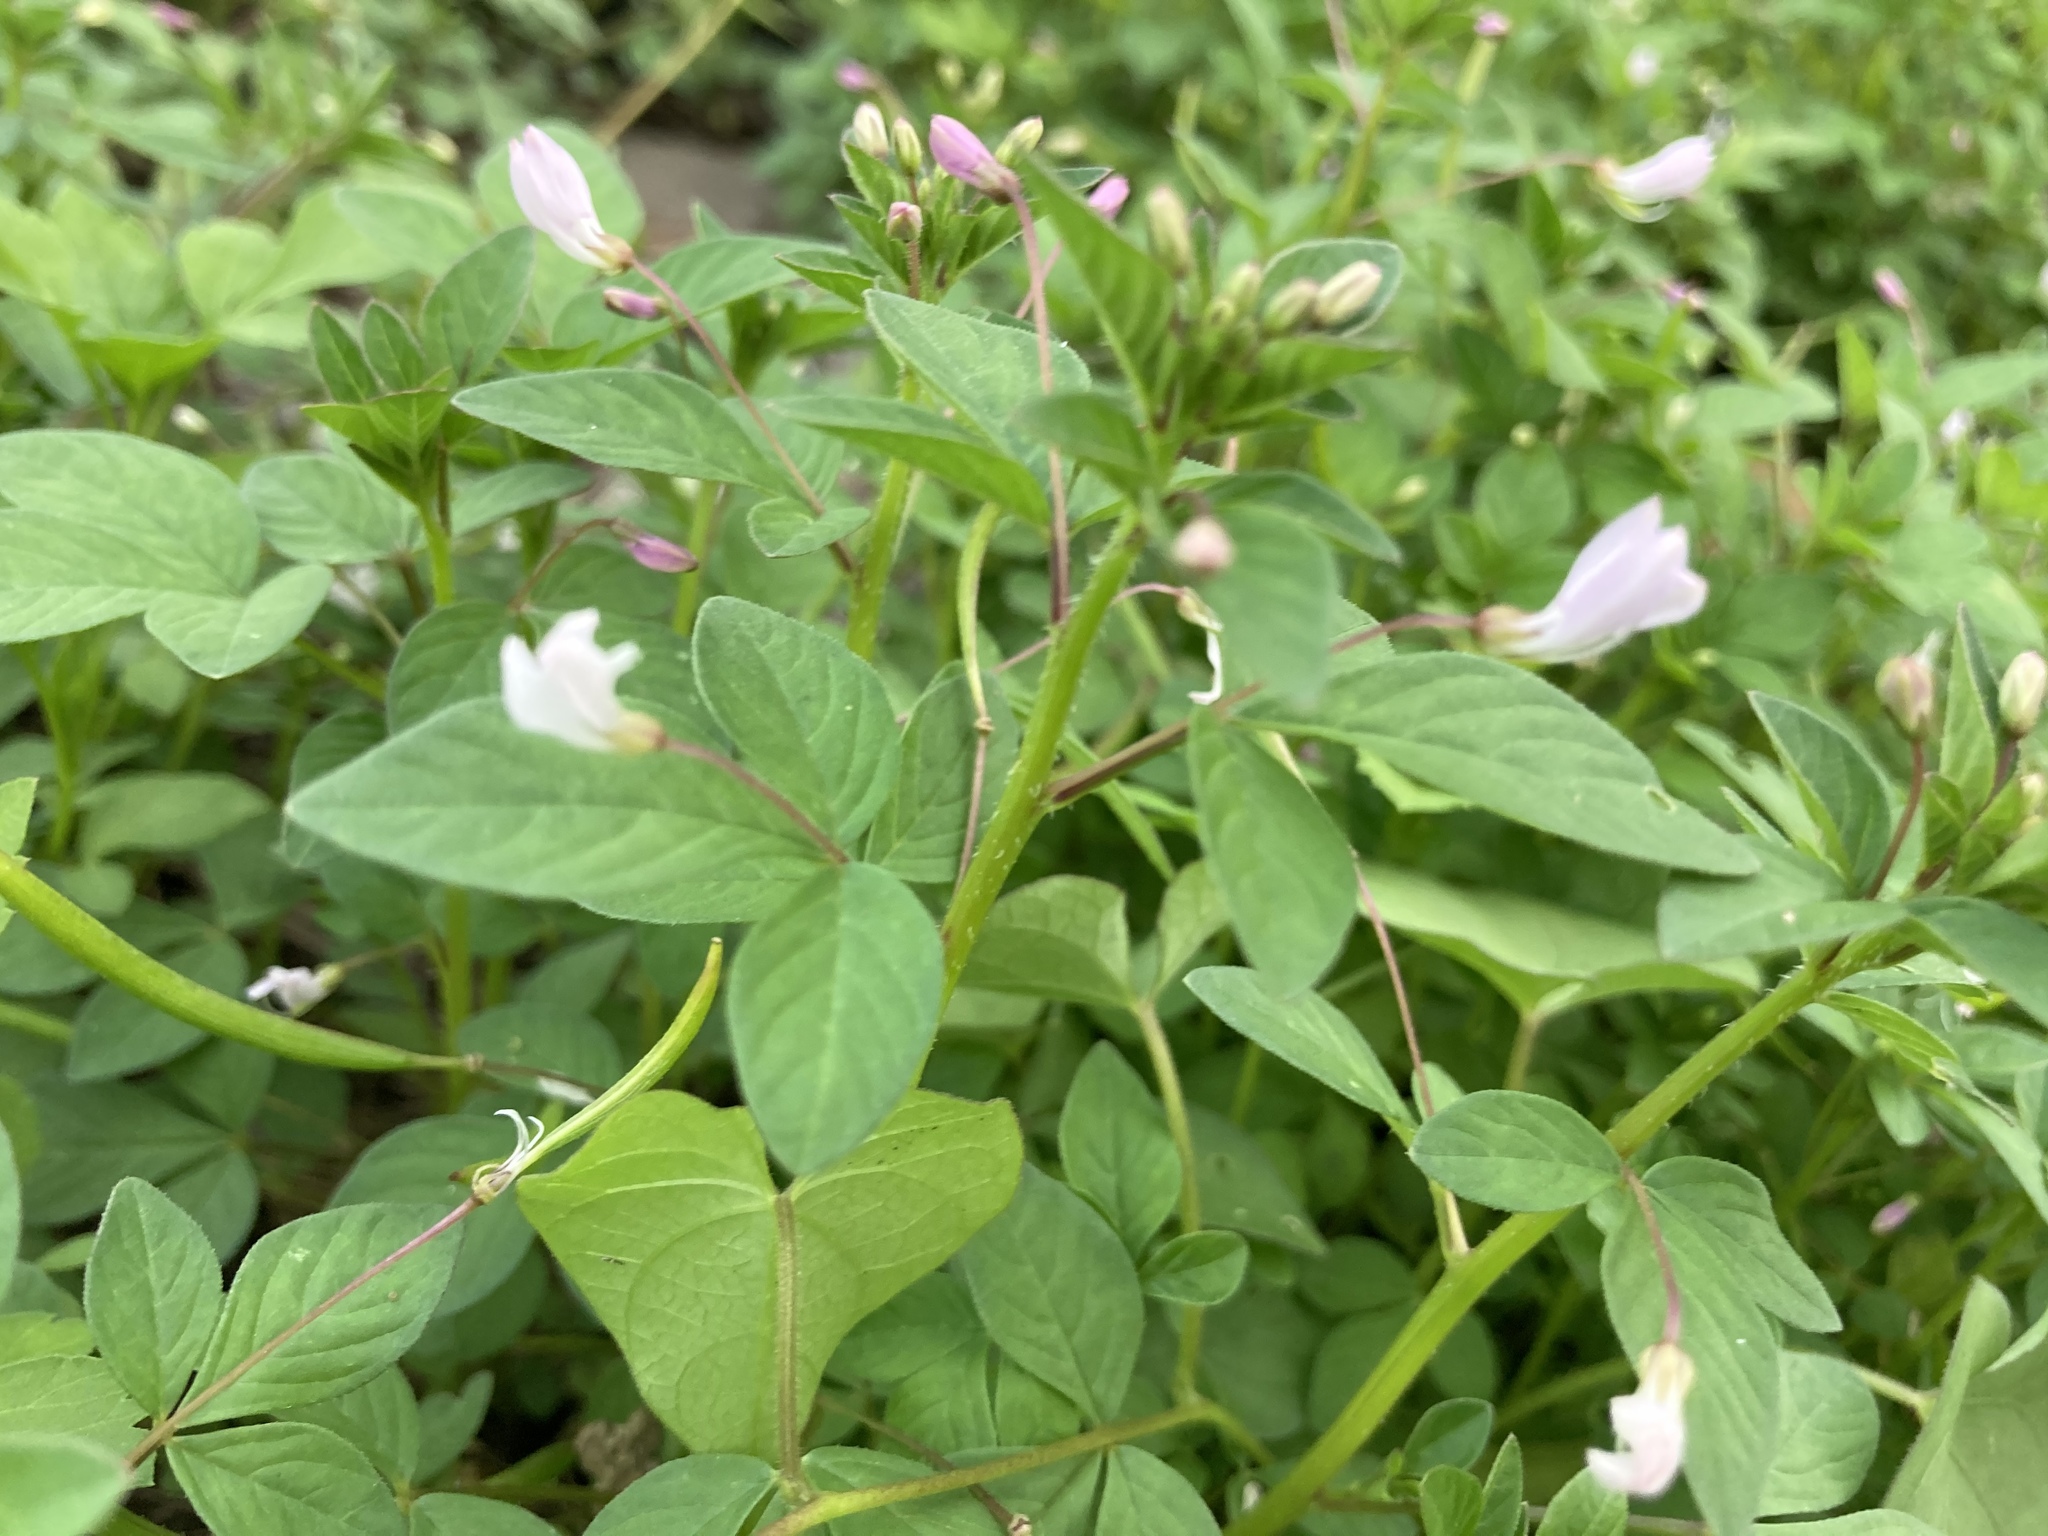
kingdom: Plantae
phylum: Tracheophyta
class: Magnoliopsida
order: Brassicales
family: Cleomaceae
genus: Sieruela
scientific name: Sieruela rutidosperma
